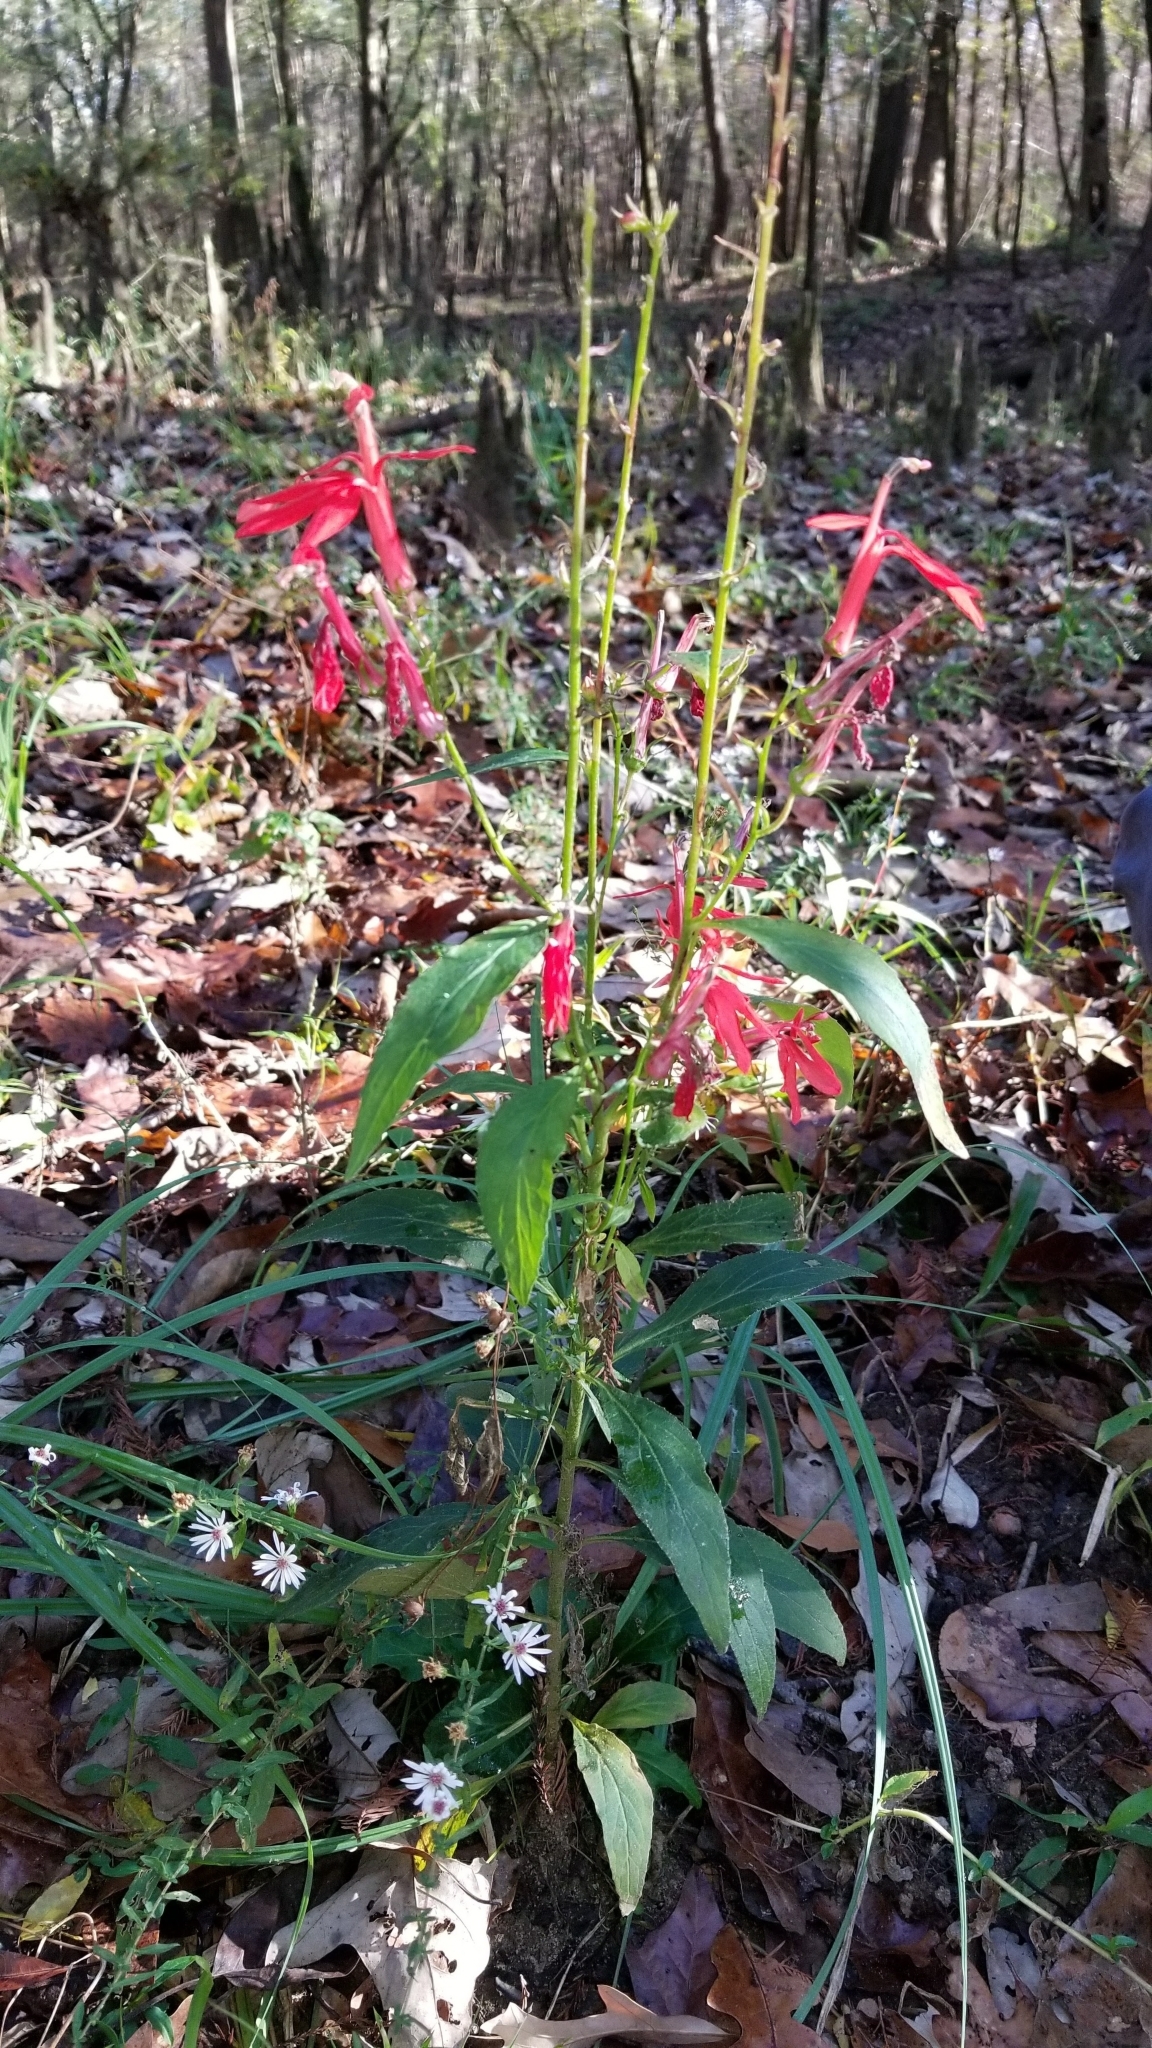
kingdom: Plantae
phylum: Tracheophyta
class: Magnoliopsida
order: Asterales
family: Campanulaceae
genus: Lobelia
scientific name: Lobelia cardinalis
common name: Cardinal flower
